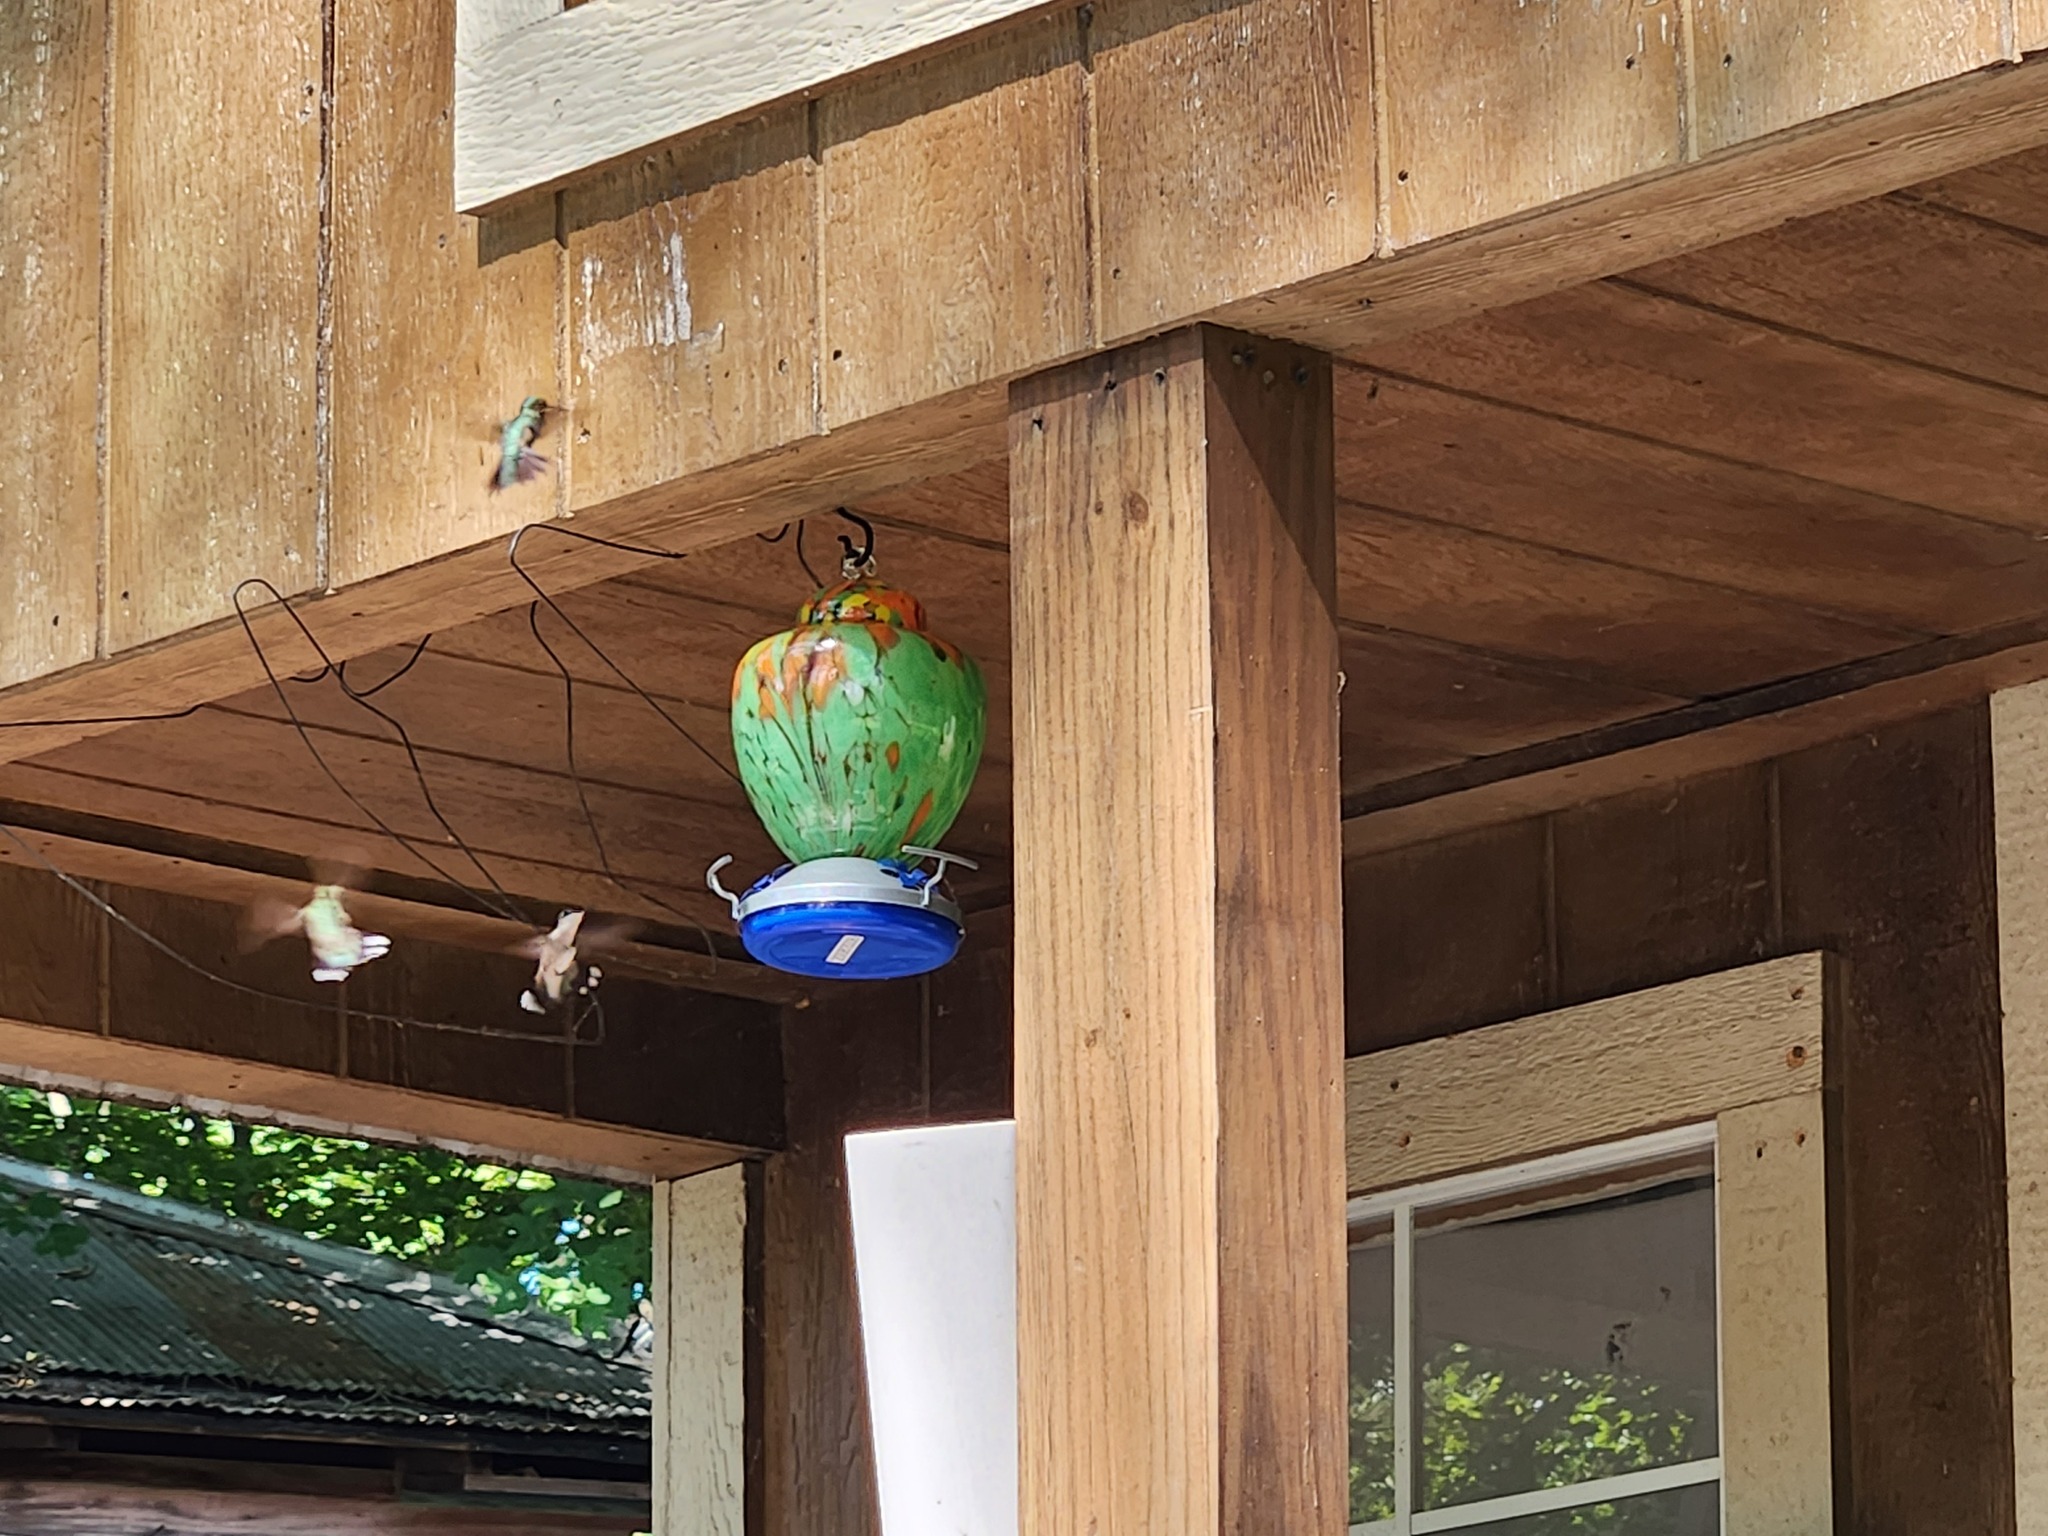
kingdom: Animalia
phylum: Chordata
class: Aves
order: Apodiformes
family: Trochilidae
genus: Archilochus
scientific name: Archilochus colubris
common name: Ruby-throated hummingbird
